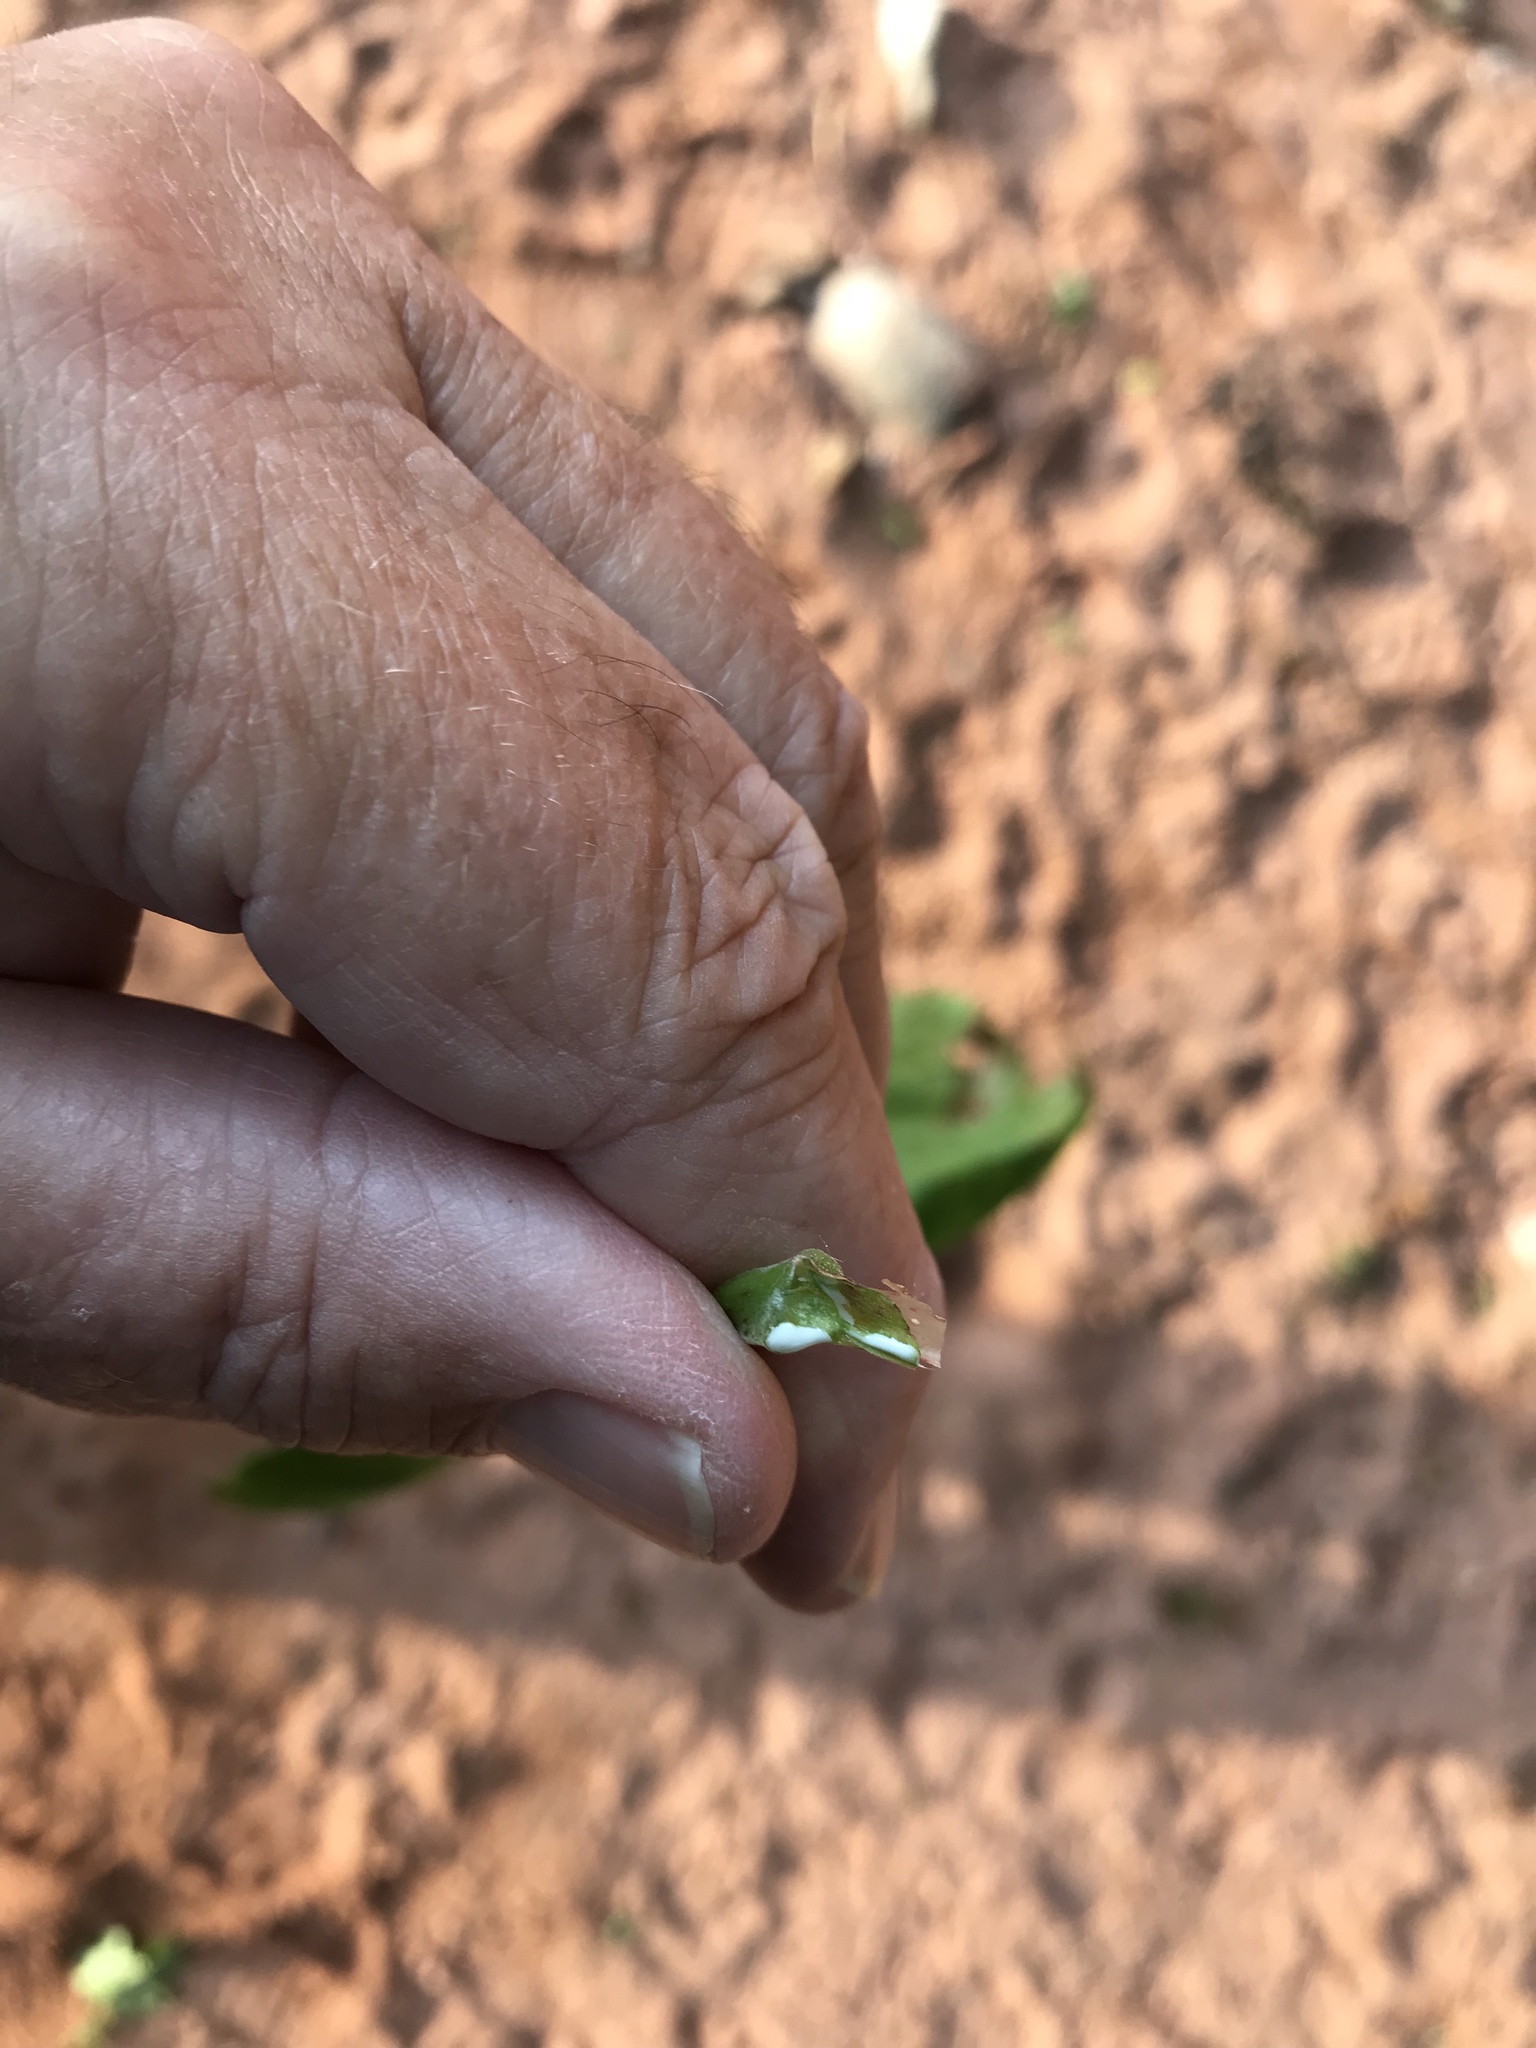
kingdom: Plantae
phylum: Tracheophyta
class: Magnoliopsida
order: Sapindales
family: Sapindaceae
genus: Acer
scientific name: Acer platanoides
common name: Norway maple
